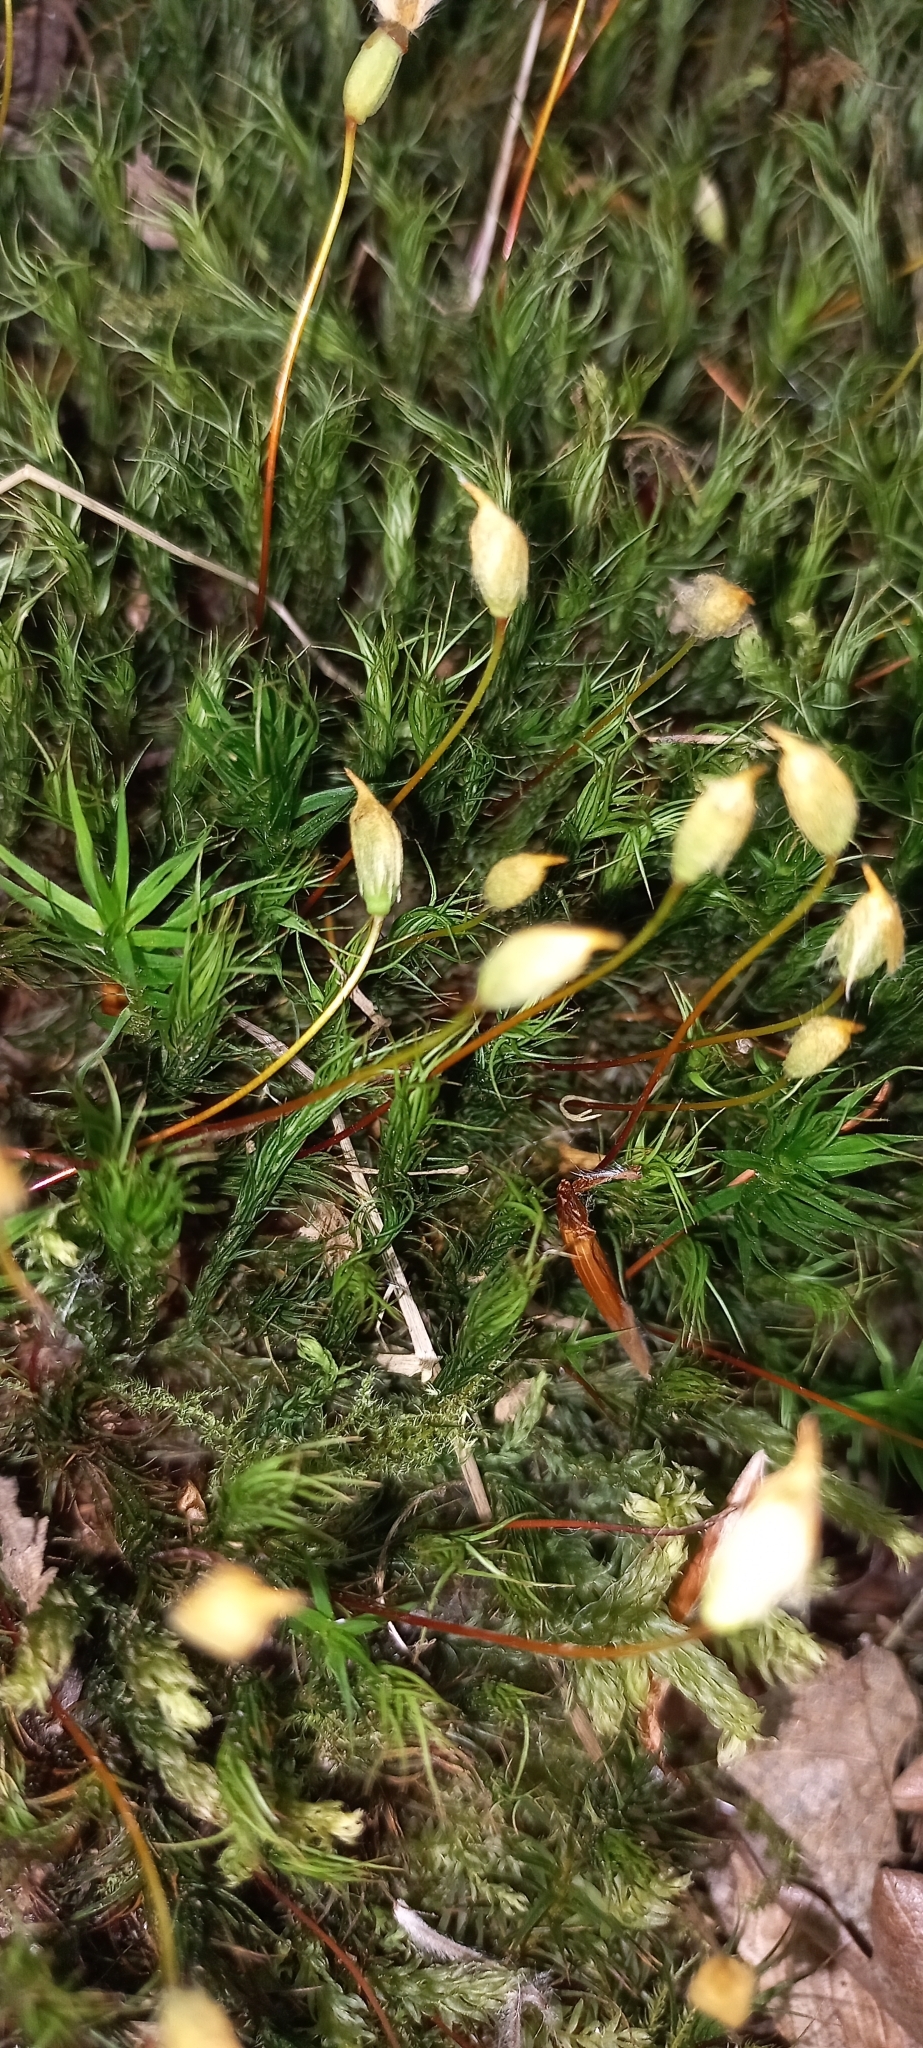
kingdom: Plantae
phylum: Bryophyta
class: Polytrichopsida
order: Polytrichales
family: Polytrichaceae
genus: Polytrichum
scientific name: Polytrichum formosum
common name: Bank haircap moss
